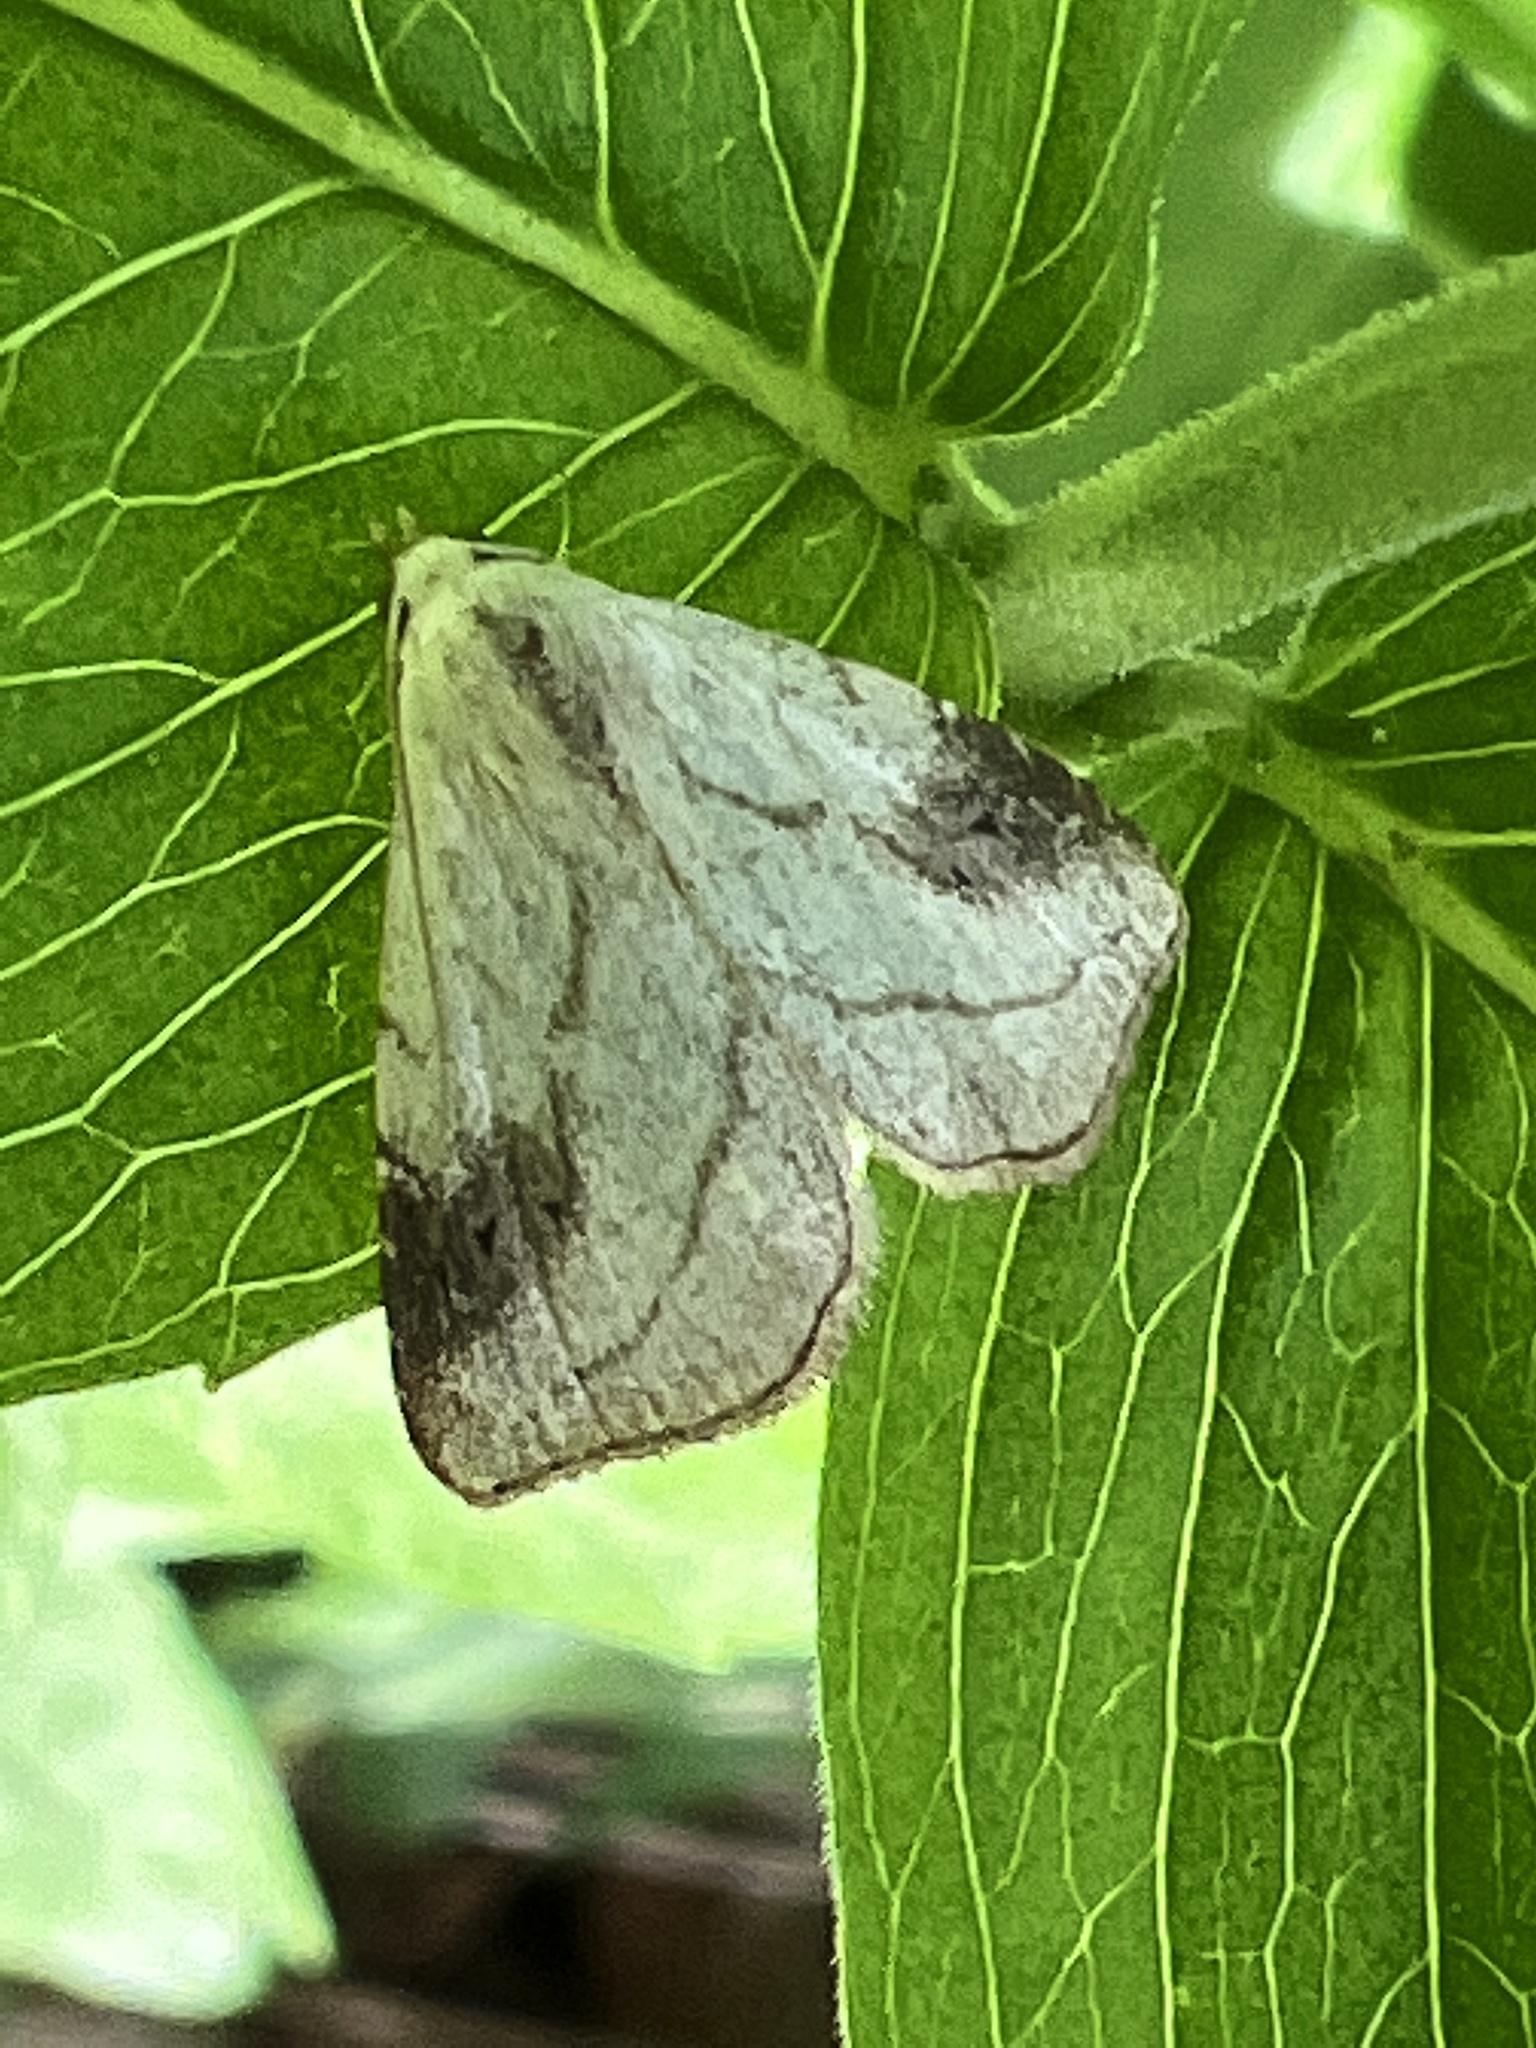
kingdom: Animalia
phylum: Arthropoda
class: Insecta
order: Lepidoptera
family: Erebidae
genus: Rivula
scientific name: Rivula propinqualis
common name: Spotted grass moth
